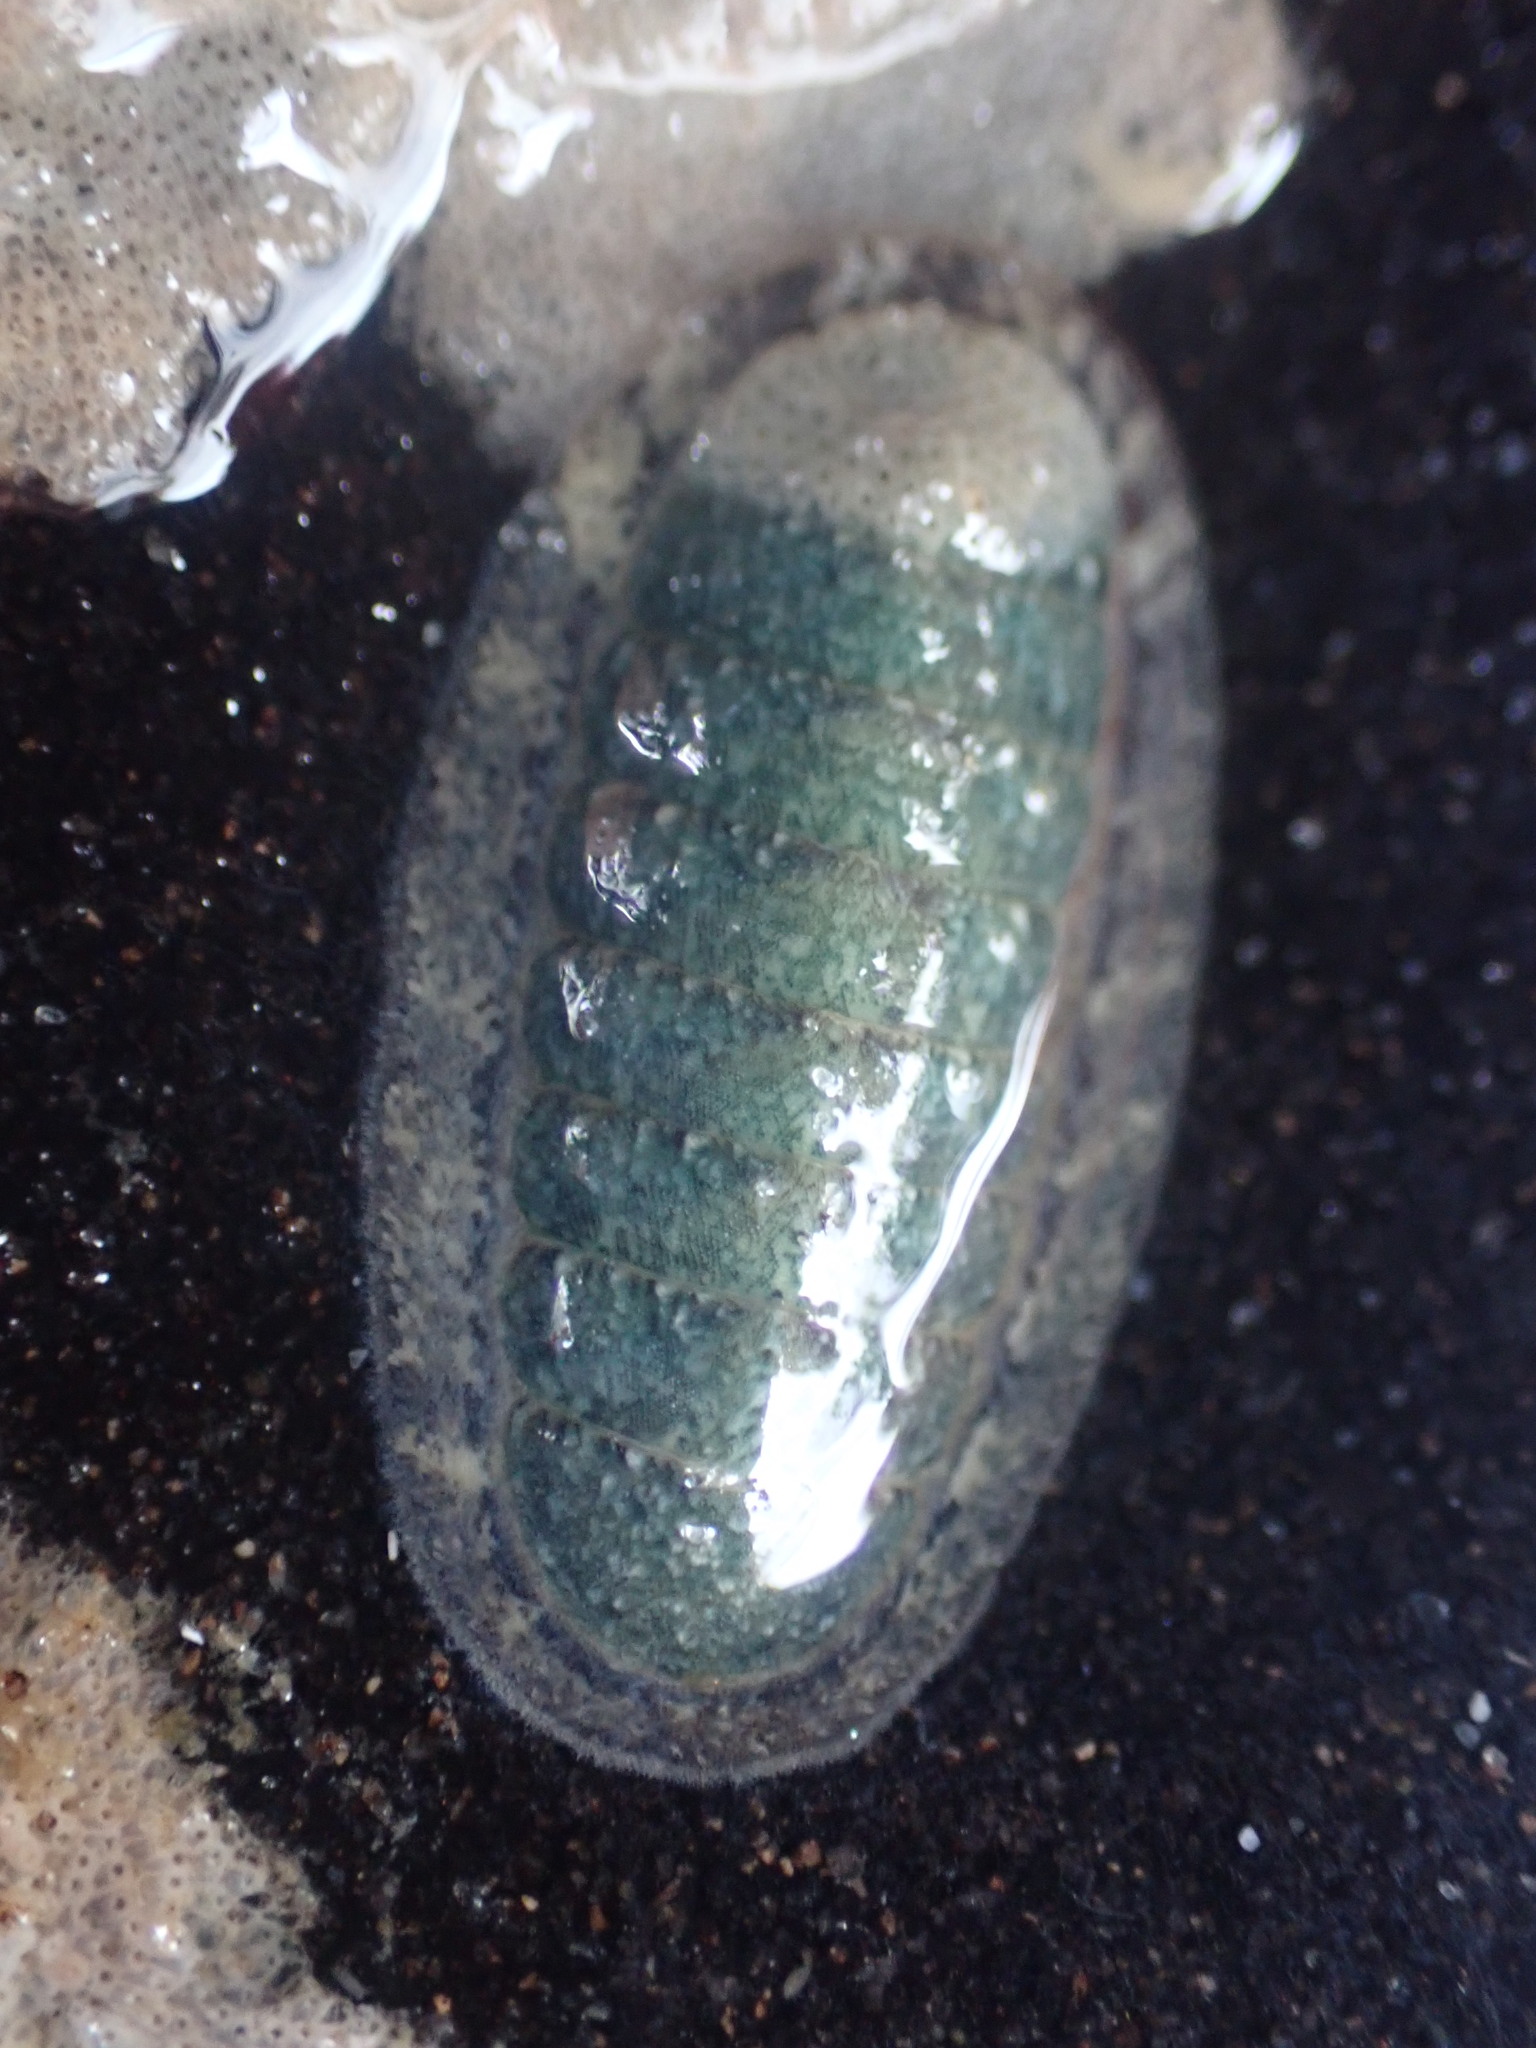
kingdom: Animalia
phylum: Mollusca
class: Polyplacophora
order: Chitonida
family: Ischnochitonidae
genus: Ischnochiton
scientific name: Ischnochiton maorianus
